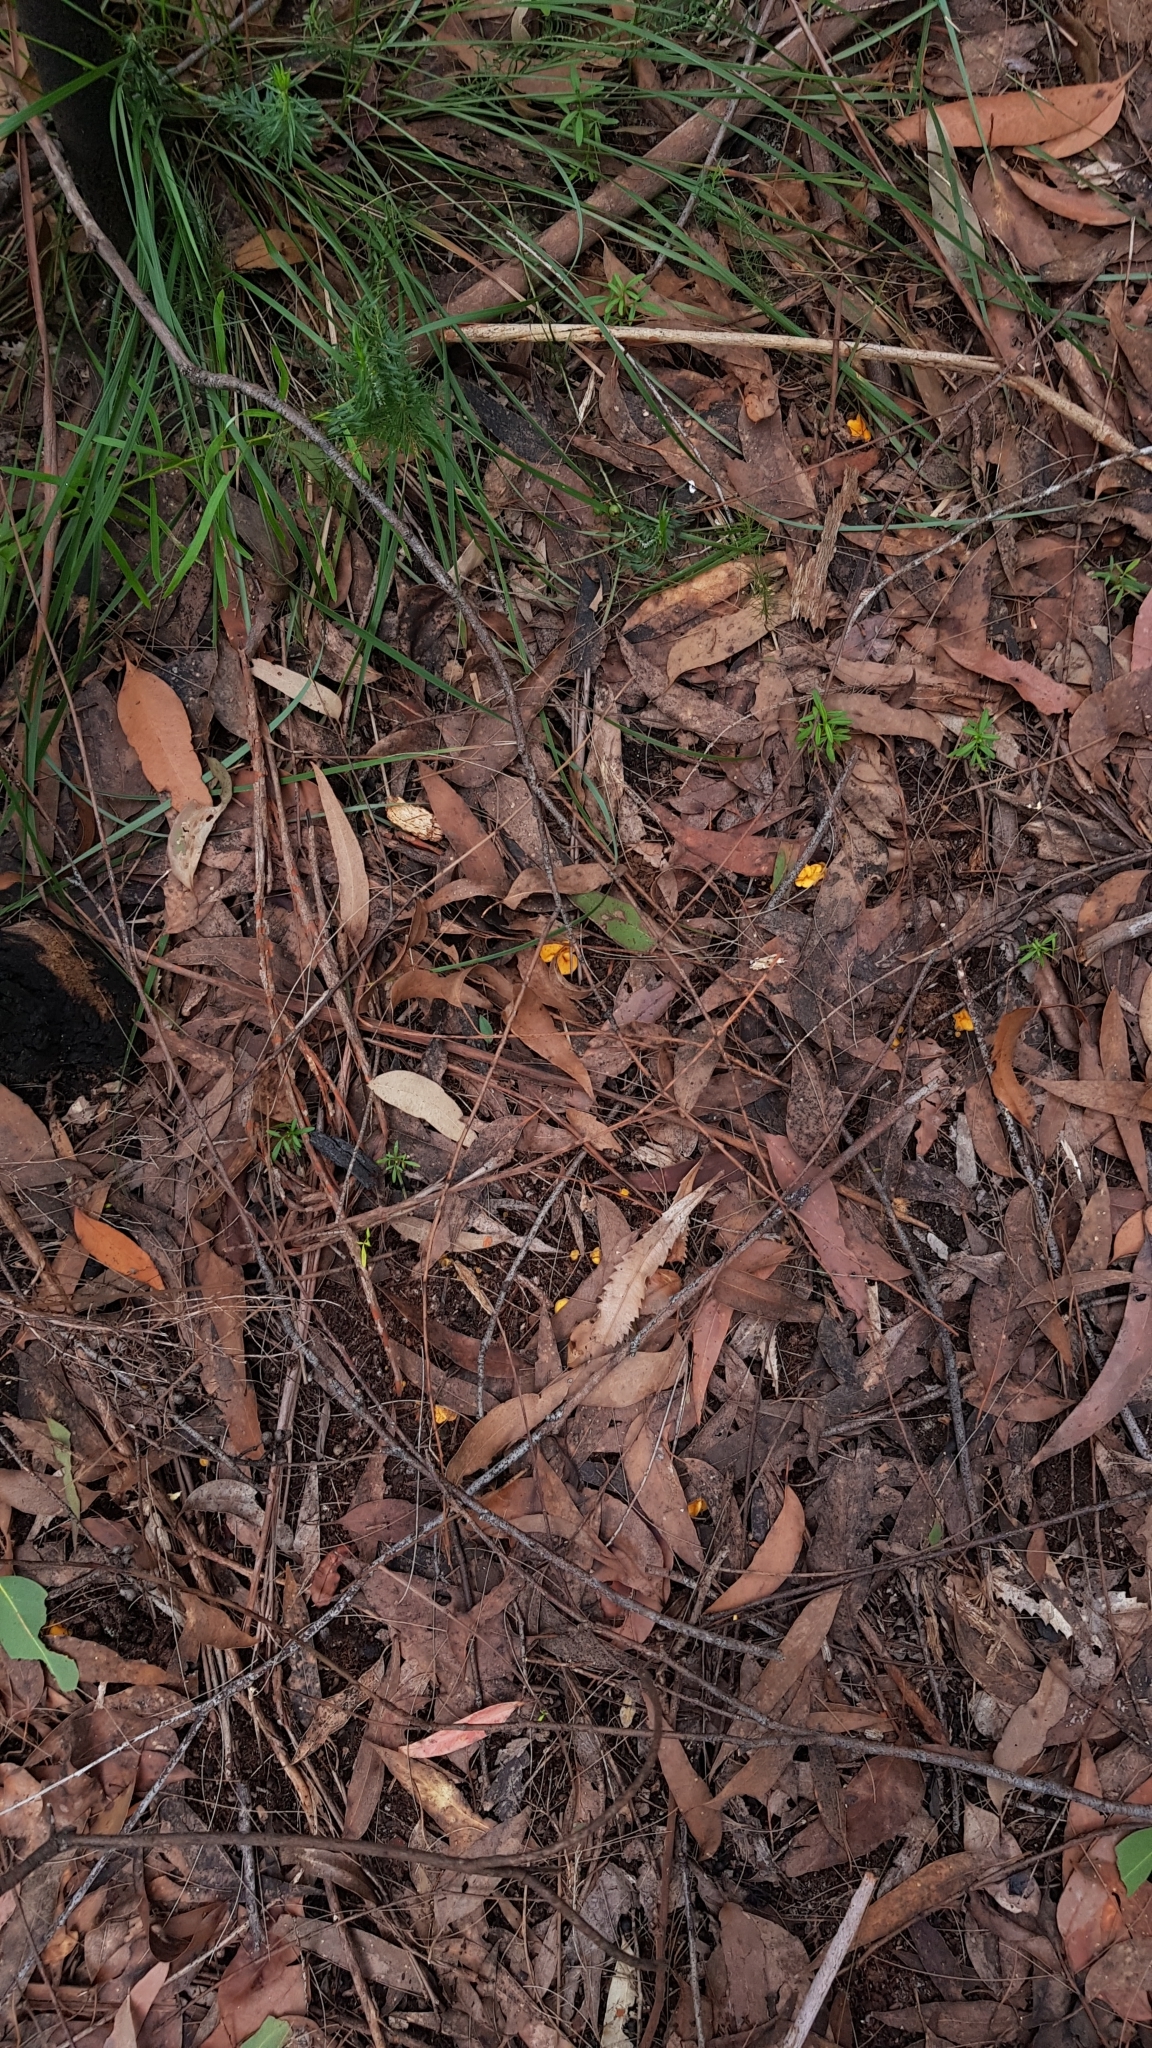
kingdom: Fungi
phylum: Ascomycota
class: Leotiomycetes
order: Helotiales
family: Helotiaceae
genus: Phaeohelotium
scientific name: Phaeohelotium baileyanum
